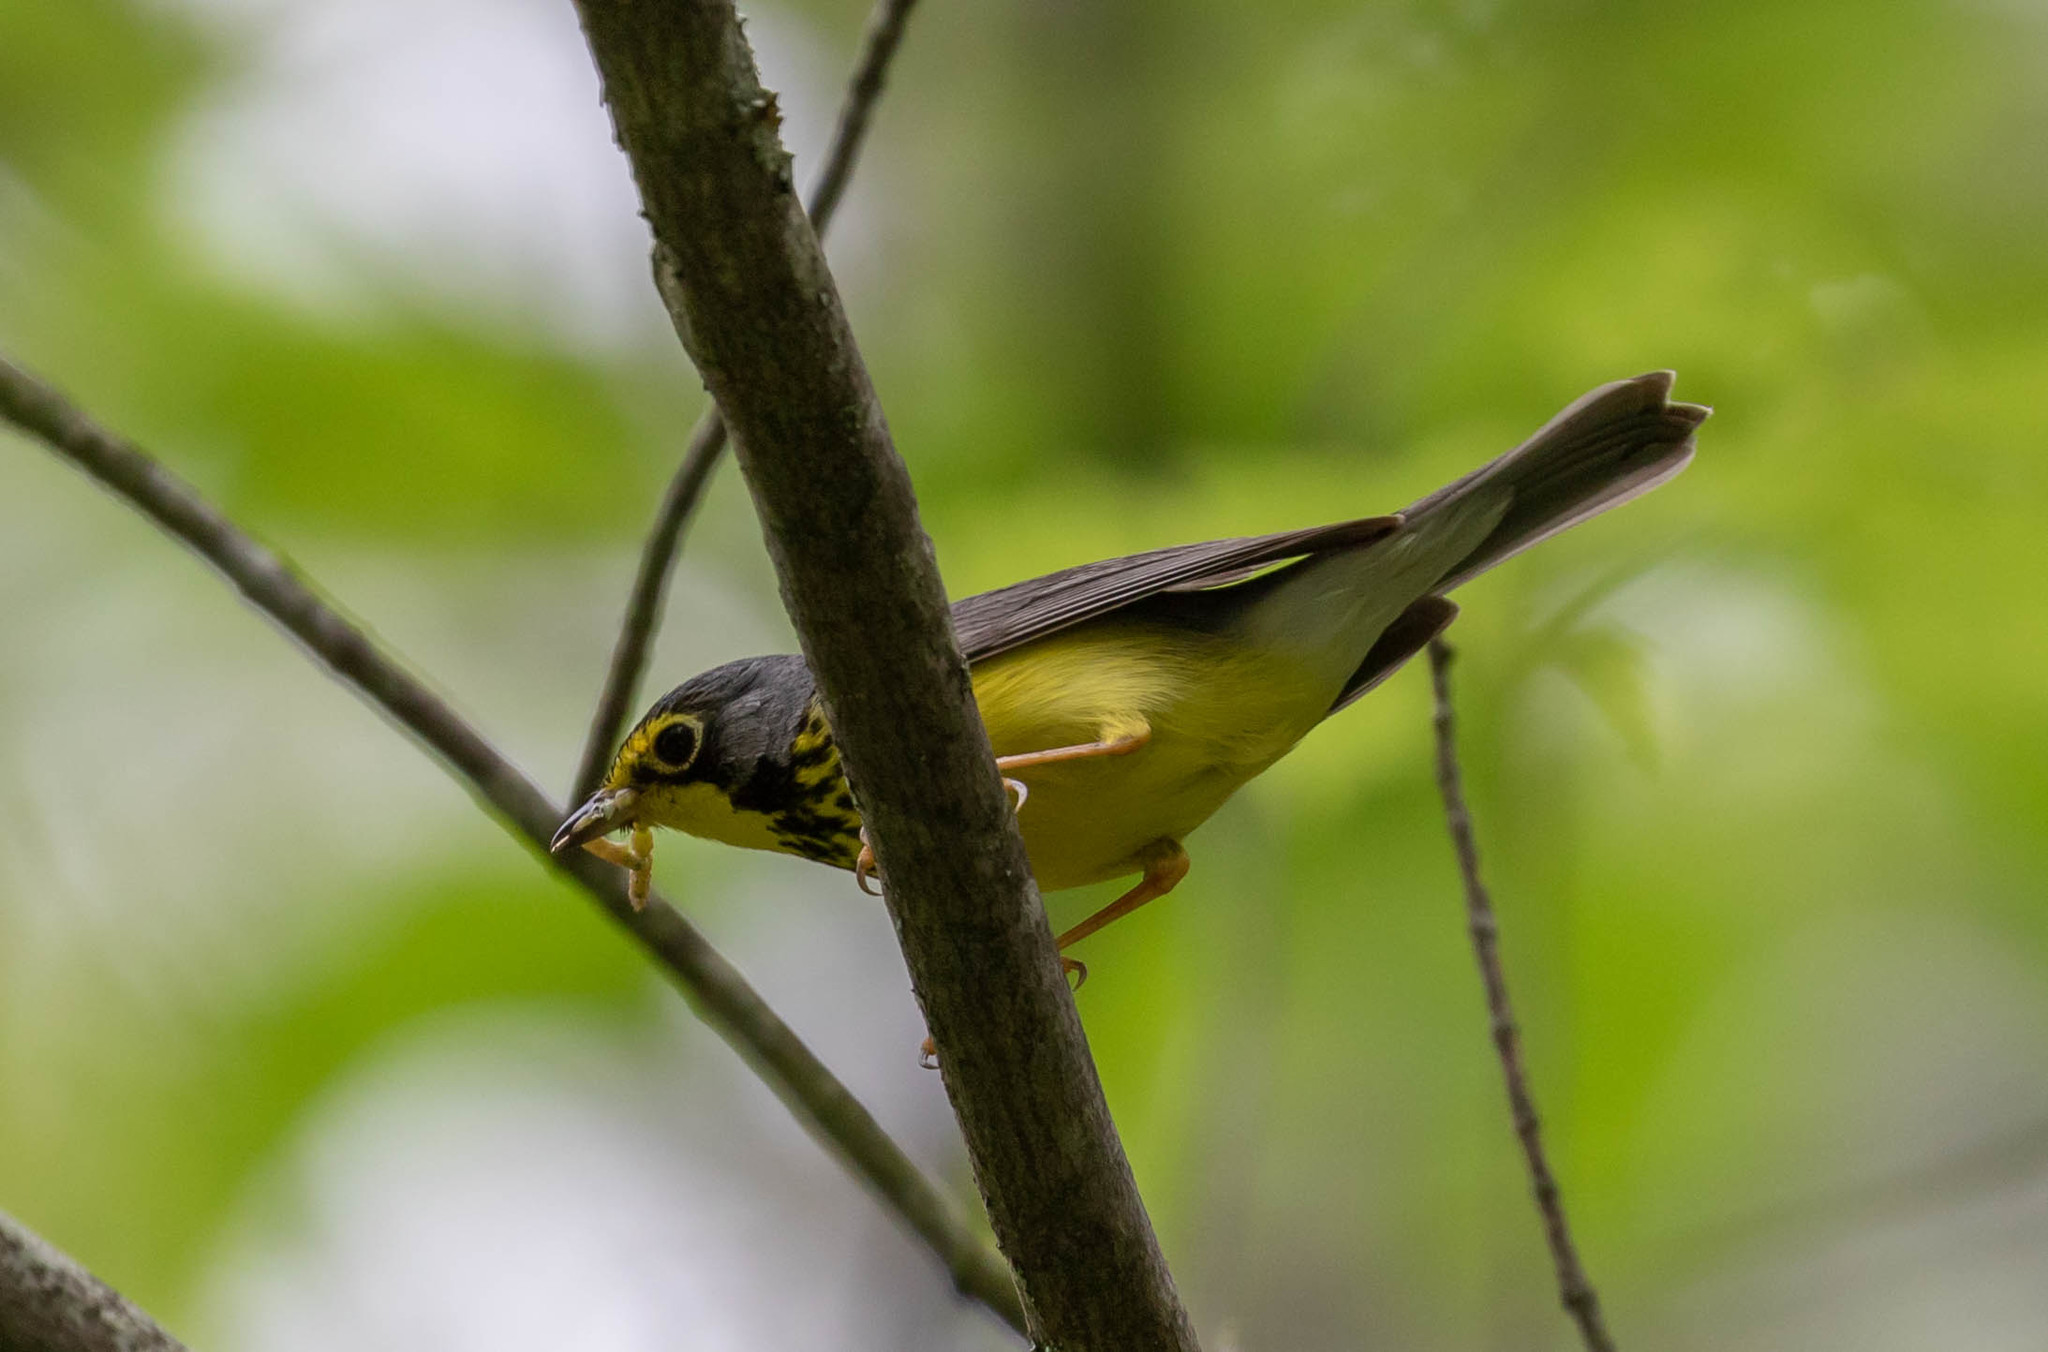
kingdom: Animalia
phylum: Chordata
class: Aves
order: Passeriformes
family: Parulidae
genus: Cardellina
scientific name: Cardellina canadensis
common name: Canada warbler
